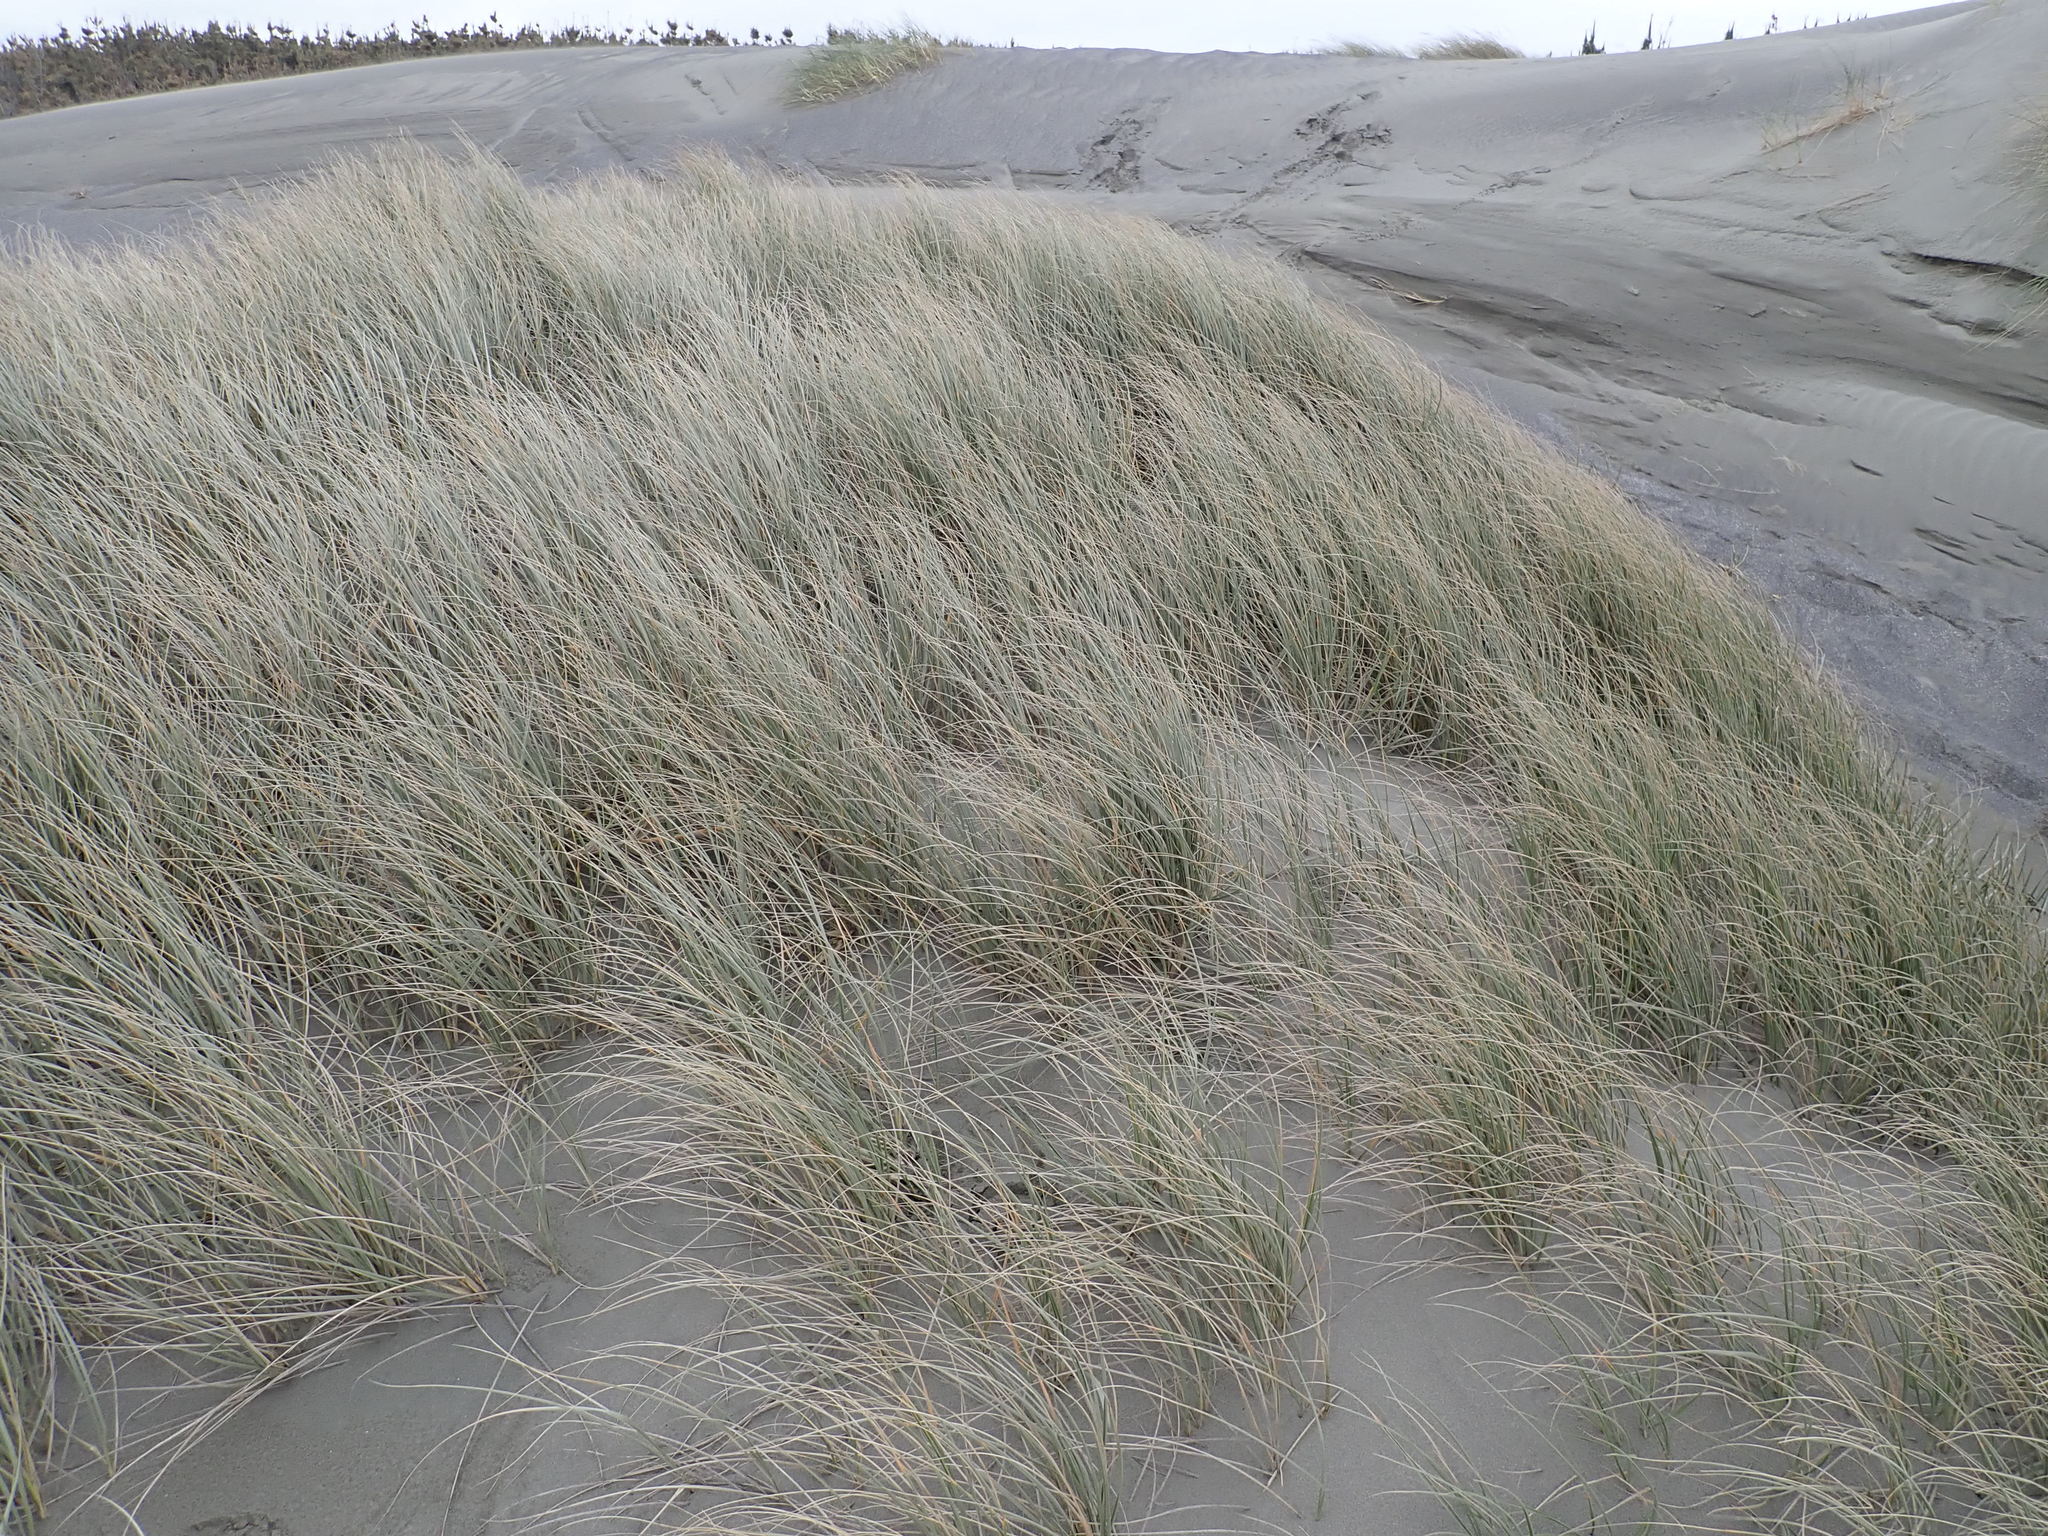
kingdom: Plantae
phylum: Tracheophyta
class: Liliopsida
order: Poales
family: Poaceae
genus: Spinifex
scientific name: Spinifex sericeus
